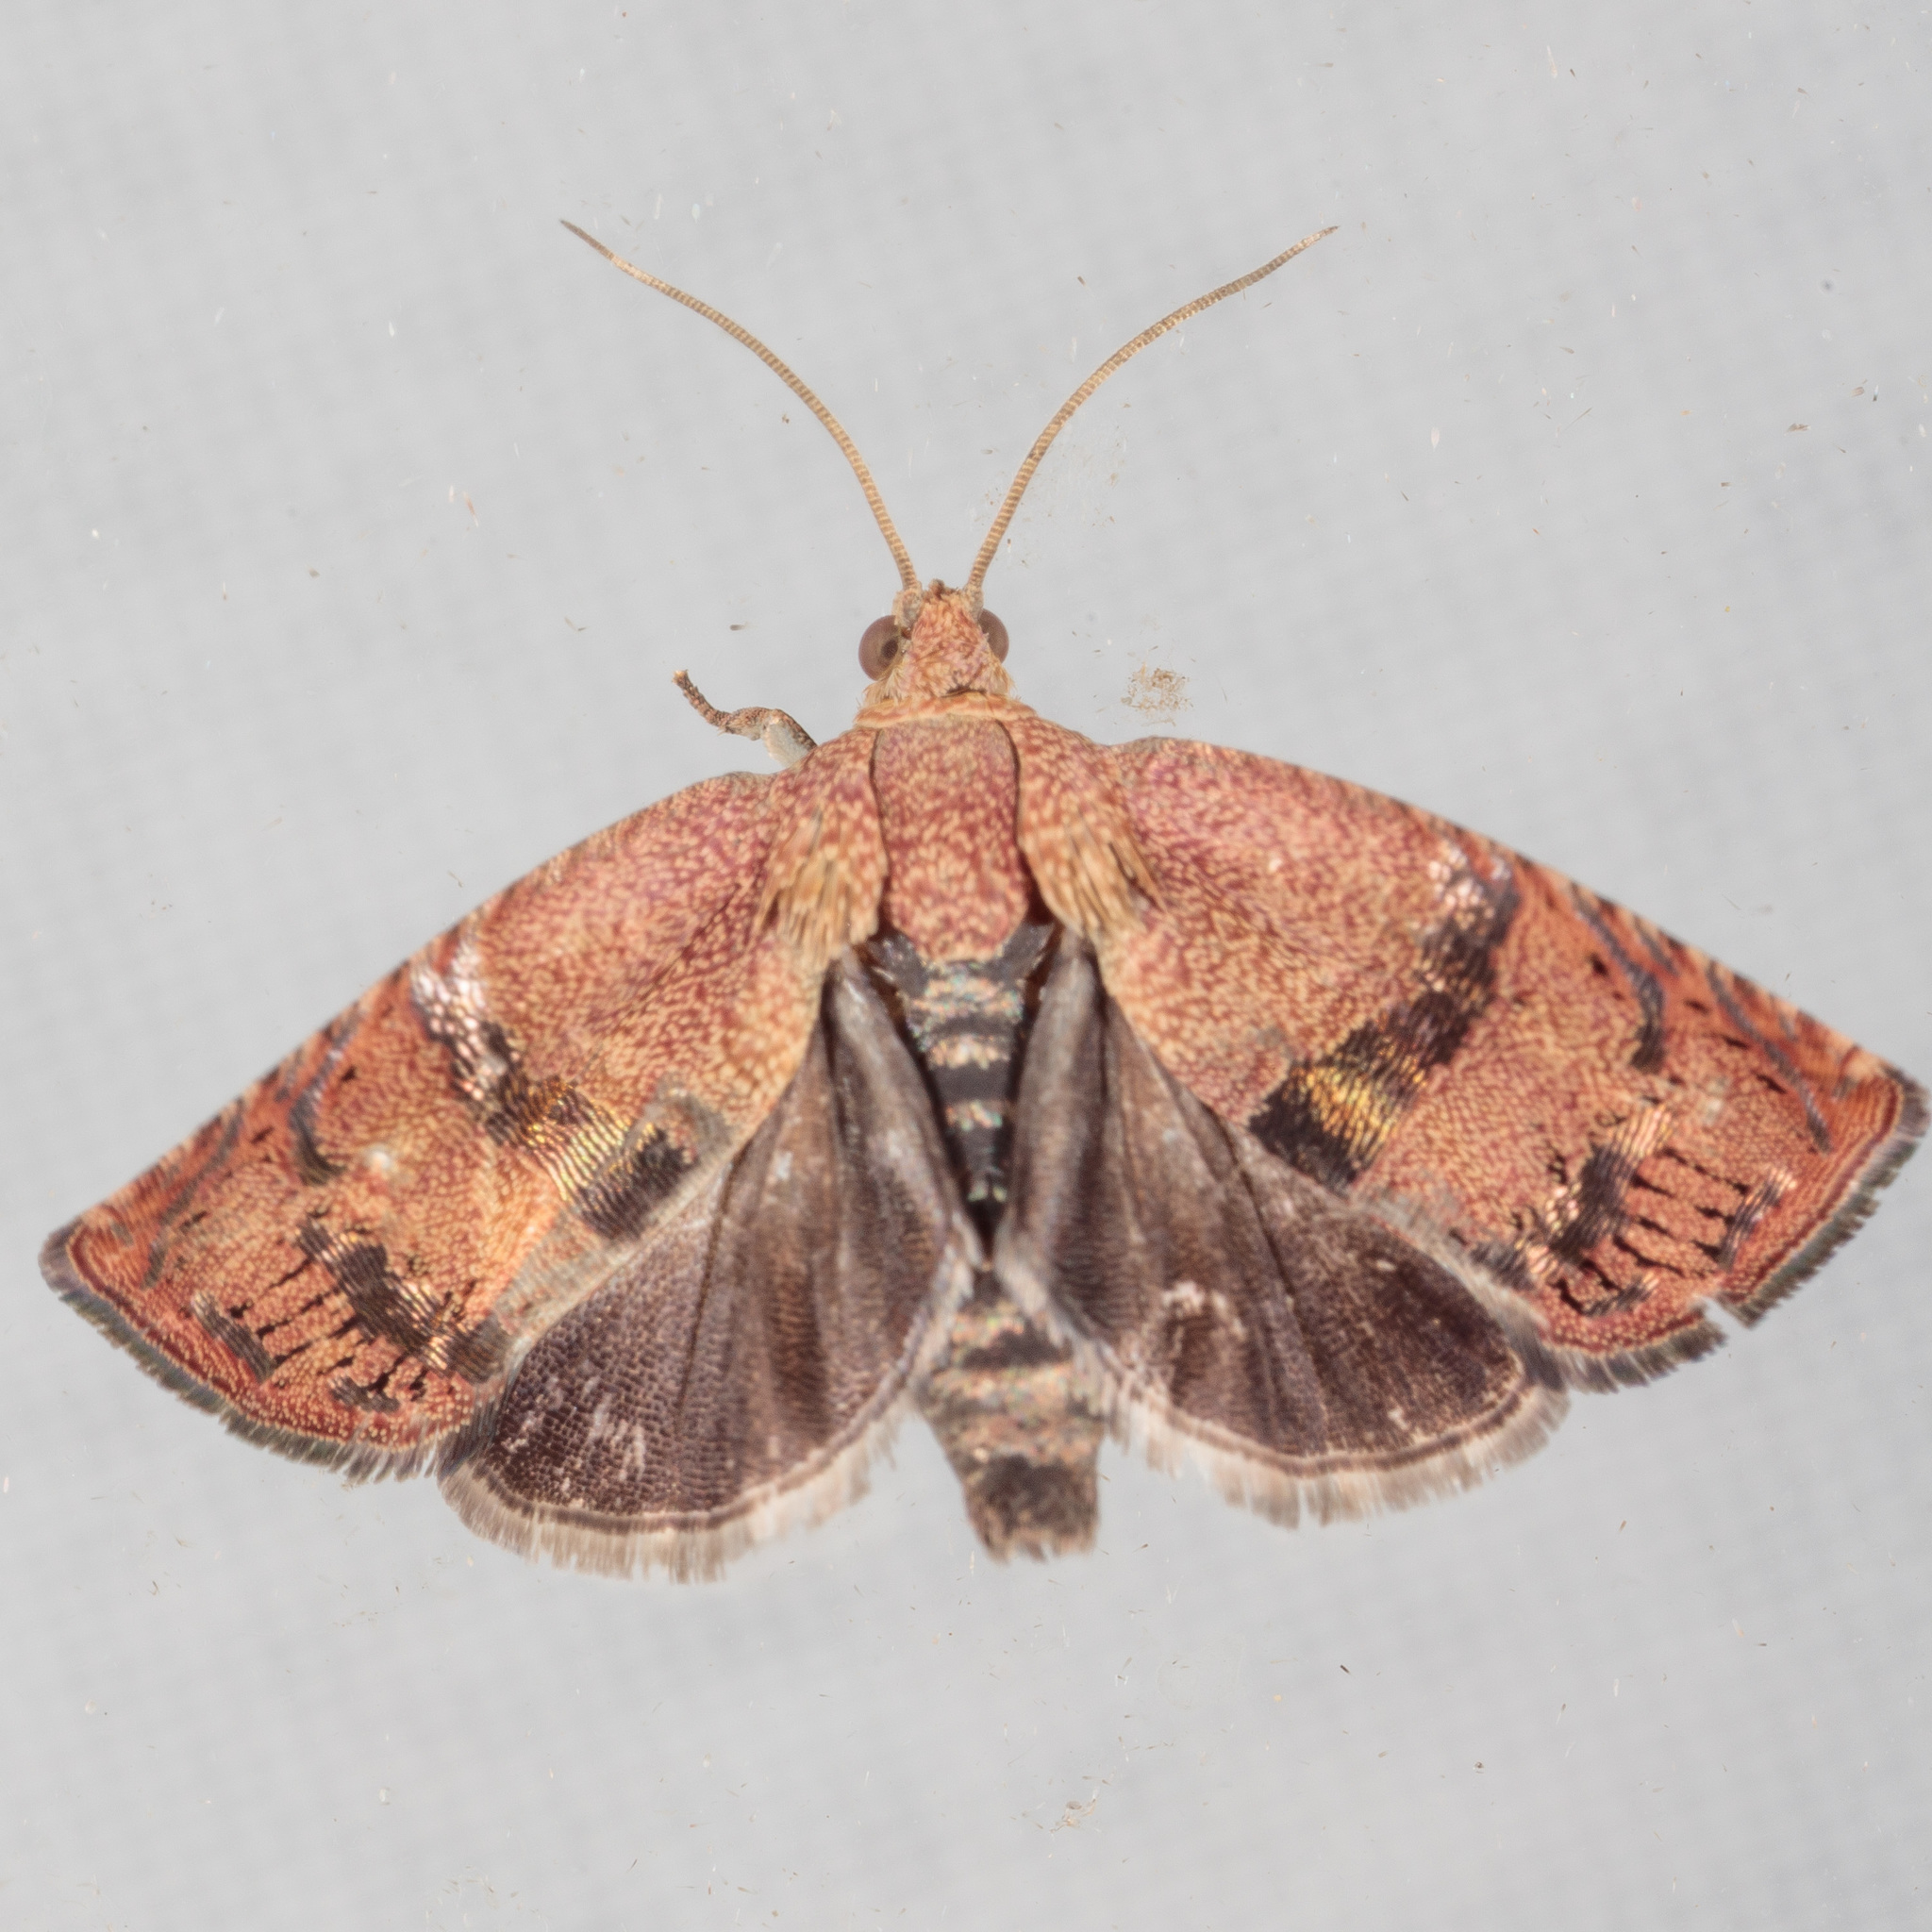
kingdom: Animalia
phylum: Arthropoda
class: Insecta
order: Lepidoptera
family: Tortricidae
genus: Cydia
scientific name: Cydia latiferreana
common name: Filbertworm moth
